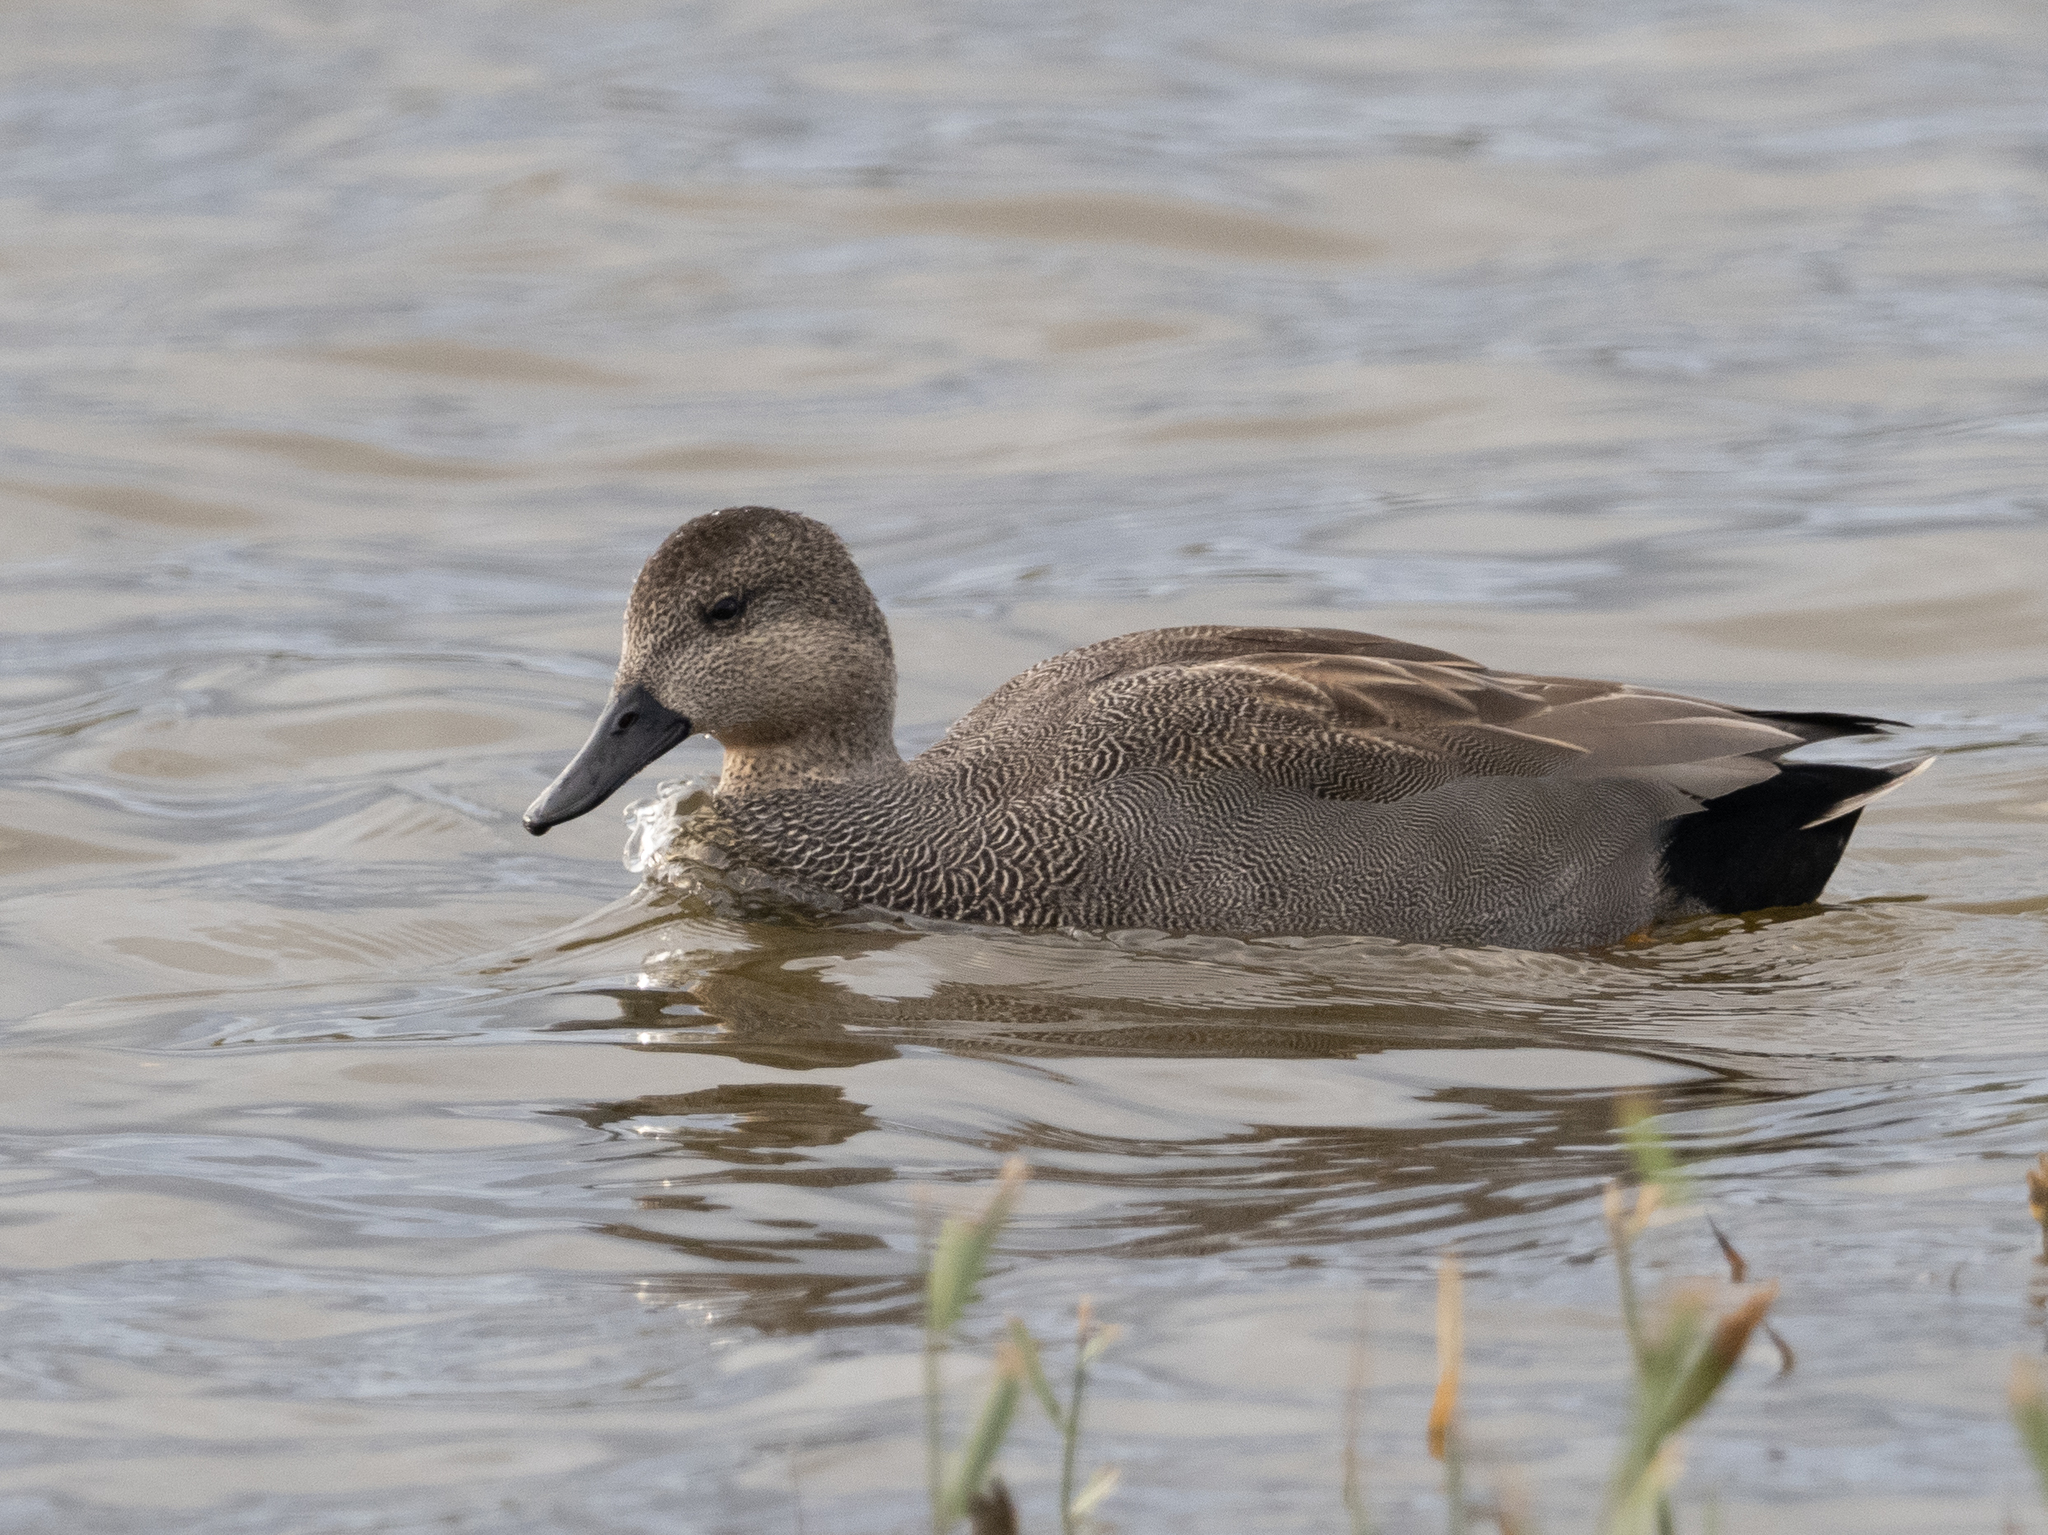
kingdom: Animalia
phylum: Chordata
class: Aves
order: Anseriformes
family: Anatidae
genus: Mareca
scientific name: Mareca strepera
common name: Gadwall
